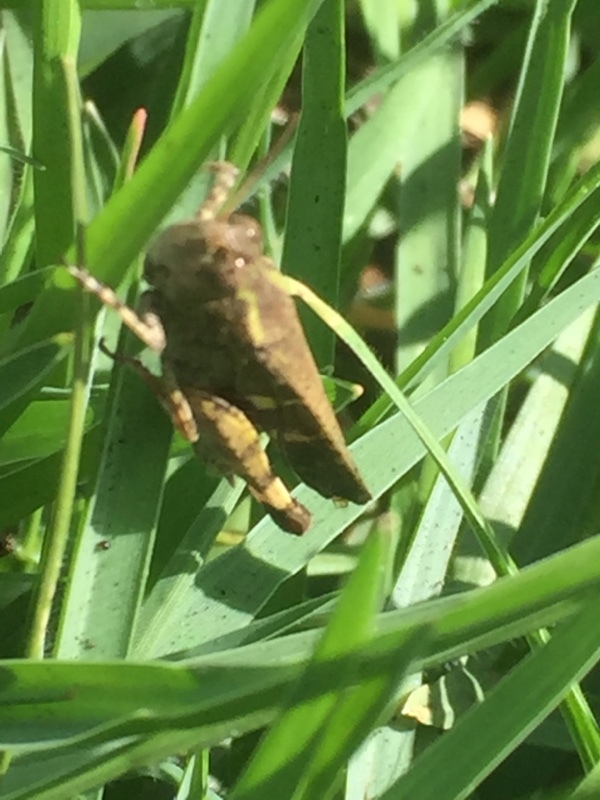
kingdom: Animalia
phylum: Arthropoda
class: Insecta
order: Orthoptera
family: Acrididae
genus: Aiolopus
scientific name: Aiolopus strepens
